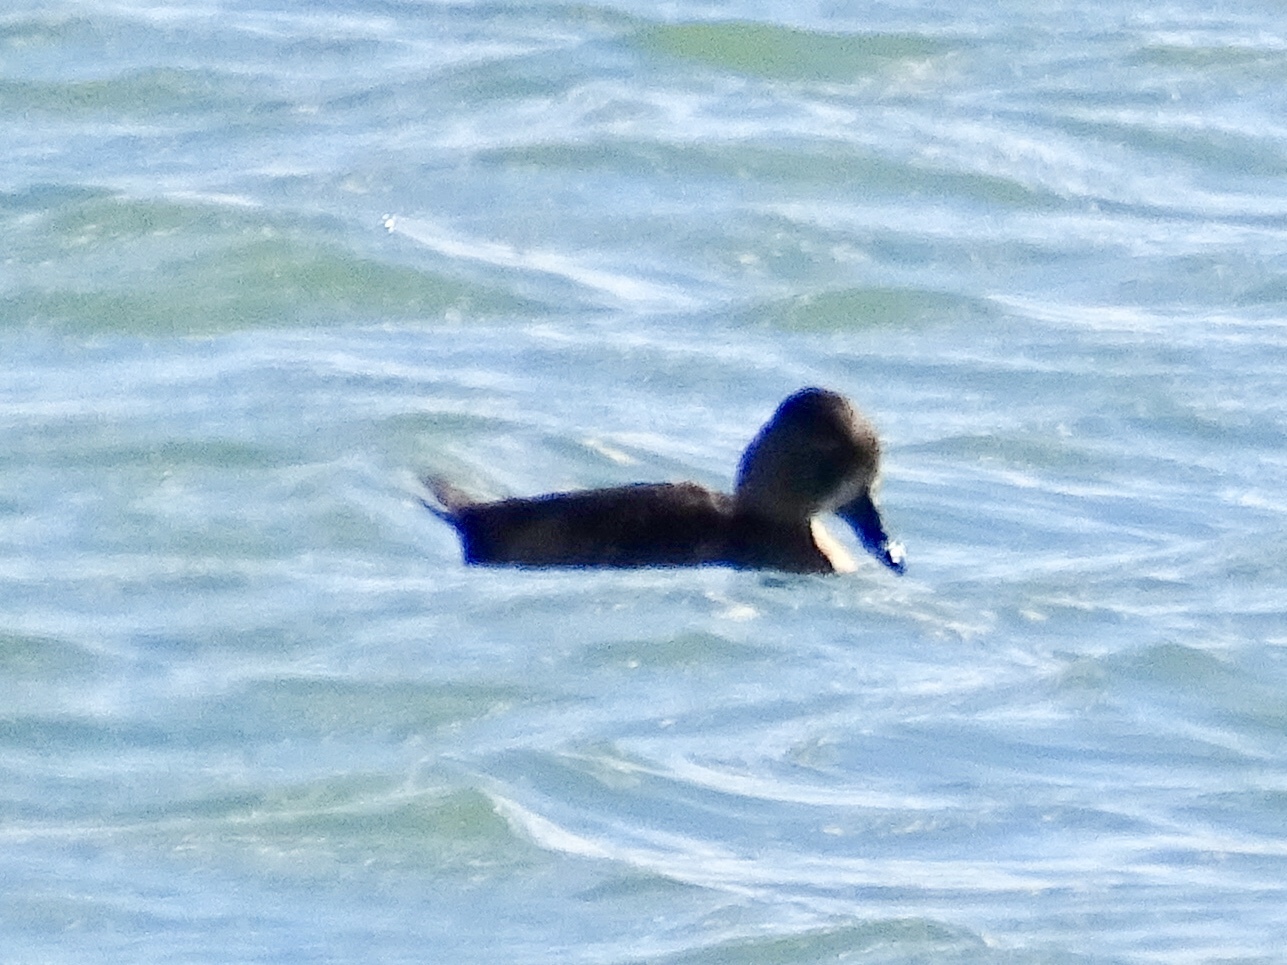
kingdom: Animalia
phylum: Chordata
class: Aves
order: Anseriformes
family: Anatidae
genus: Aythya
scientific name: Aythya collaris
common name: Ring-necked duck
